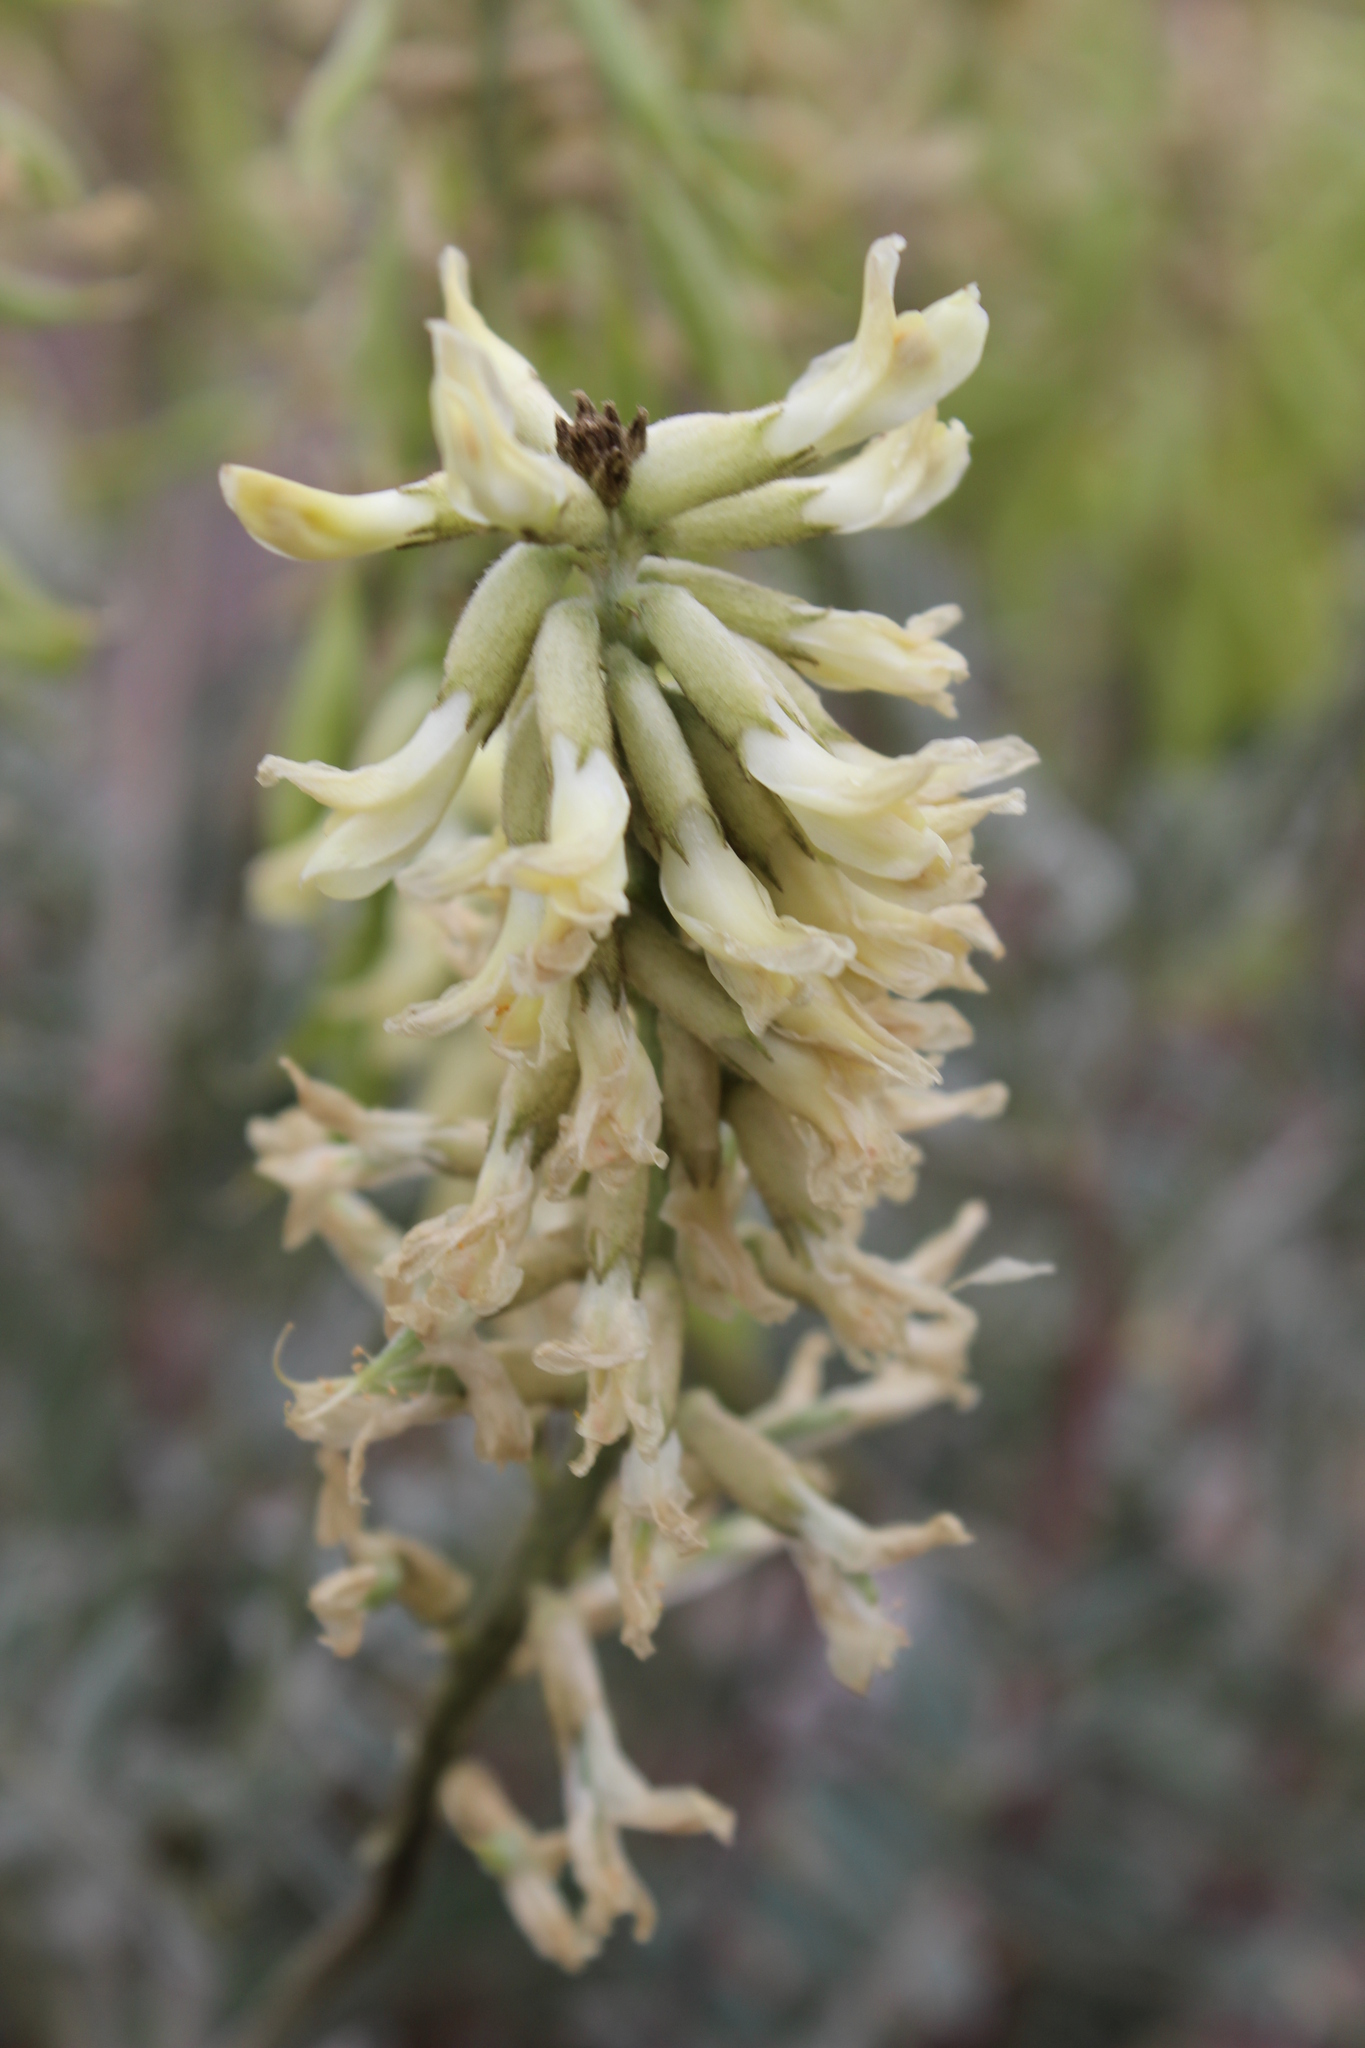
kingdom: Plantae
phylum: Tracheophyta
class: Magnoliopsida
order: Fabales
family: Fabaceae
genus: Astragalus
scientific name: Astragalus oxyphysus
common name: Stanislaus milk-vetch
